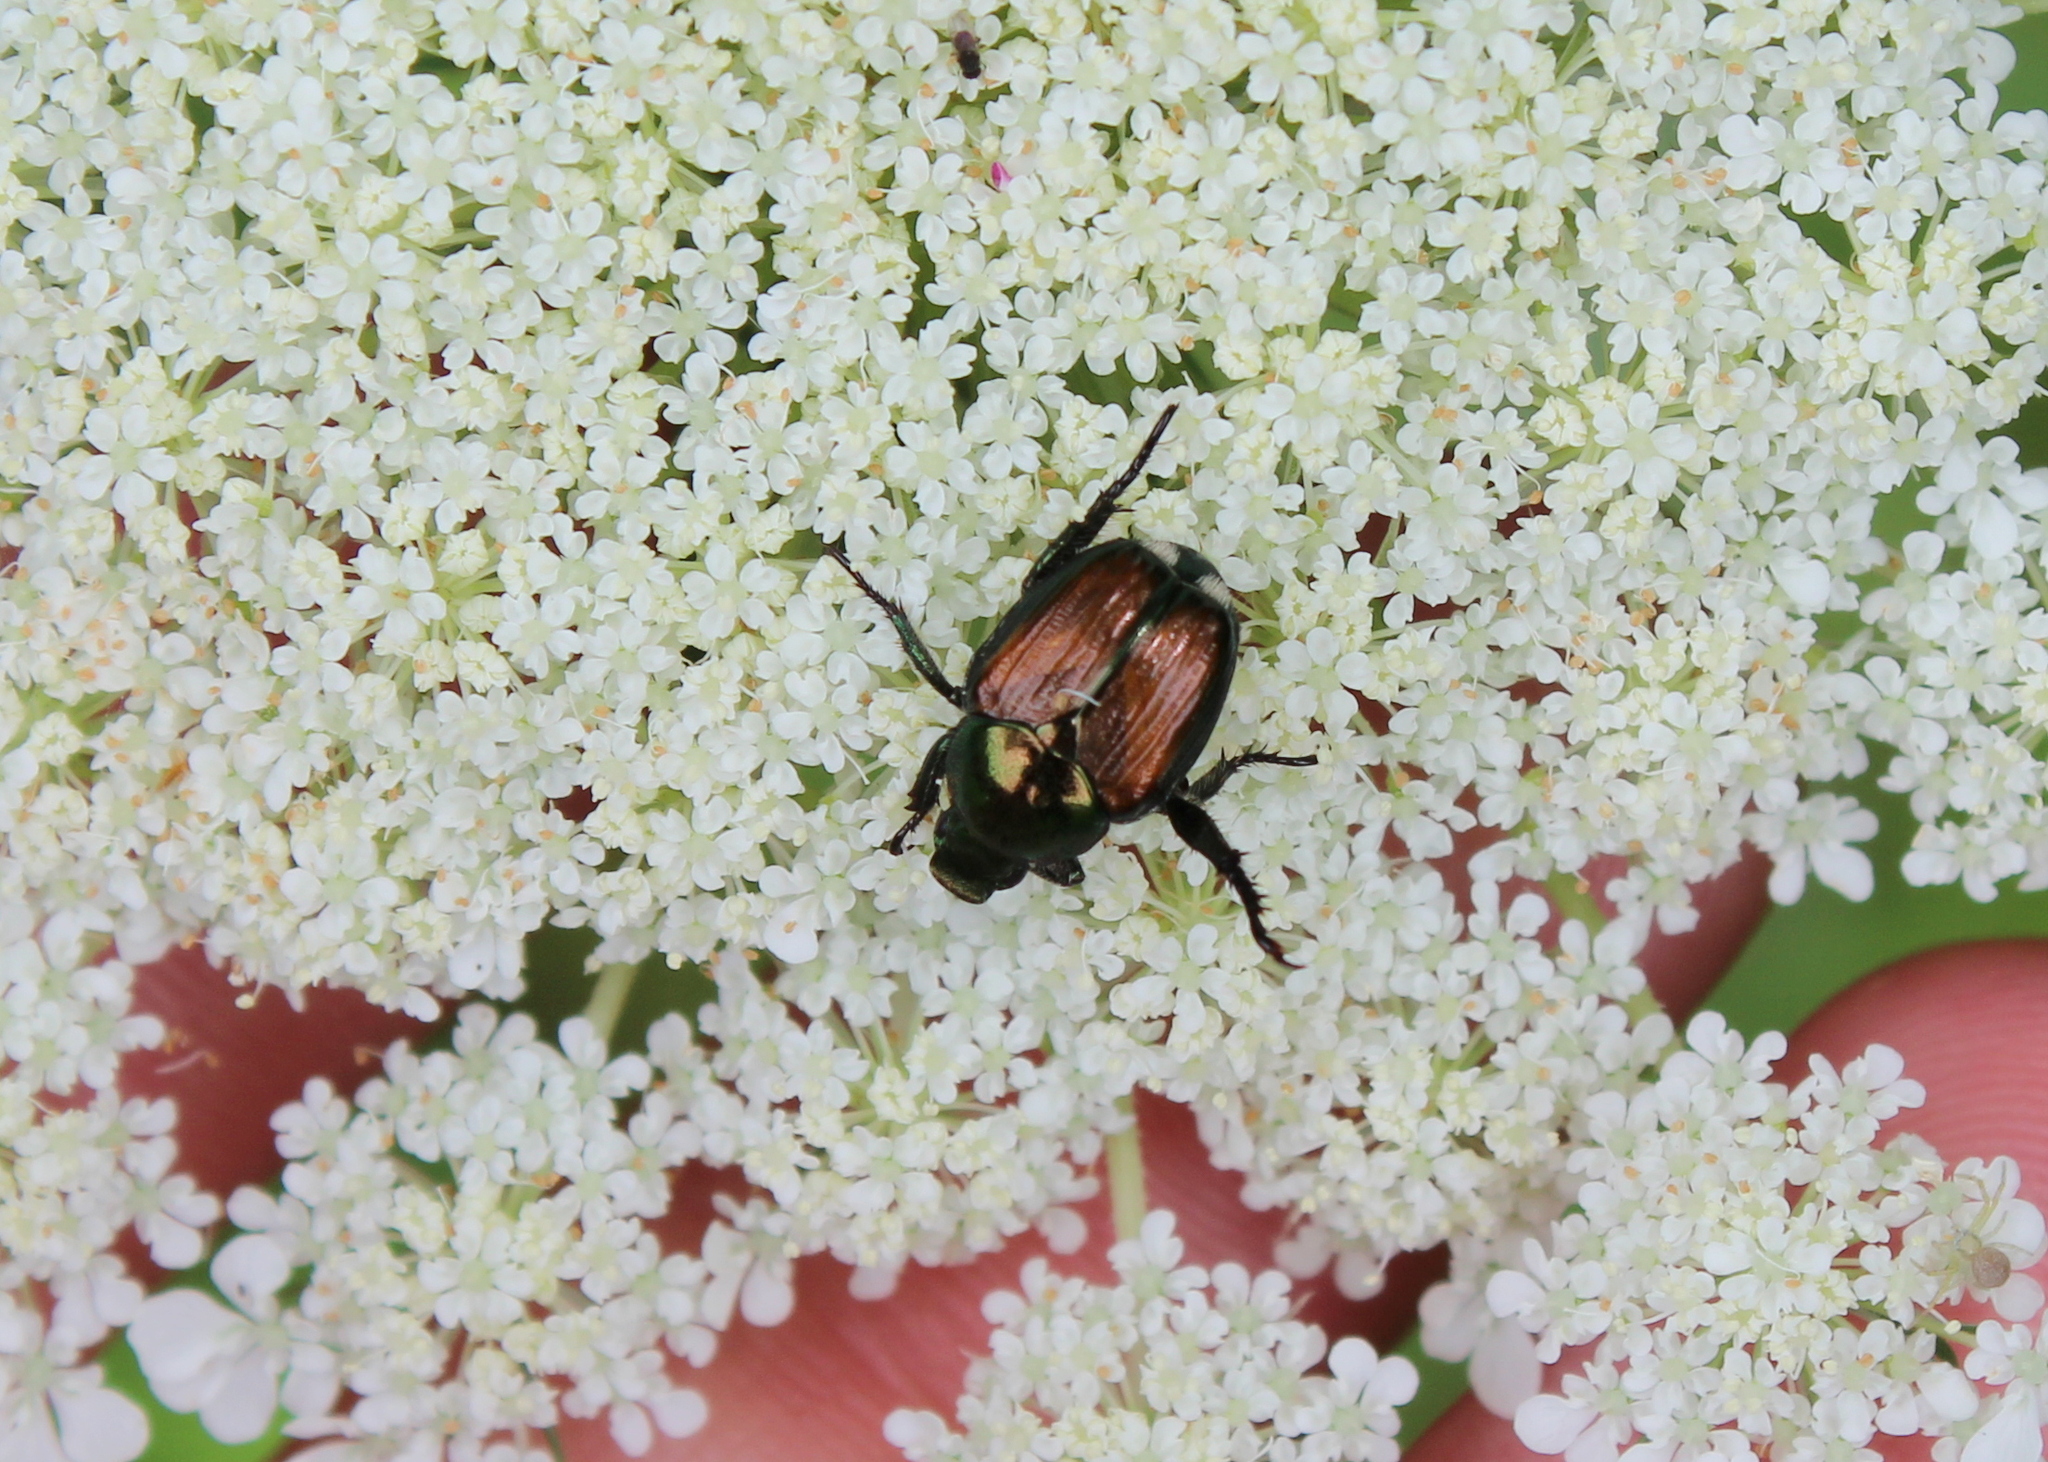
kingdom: Animalia
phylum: Arthropoda
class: Insecta
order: Coleoptera
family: Scarabaeidae
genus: Popillia
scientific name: Popillia japonica
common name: Japanese beetle
